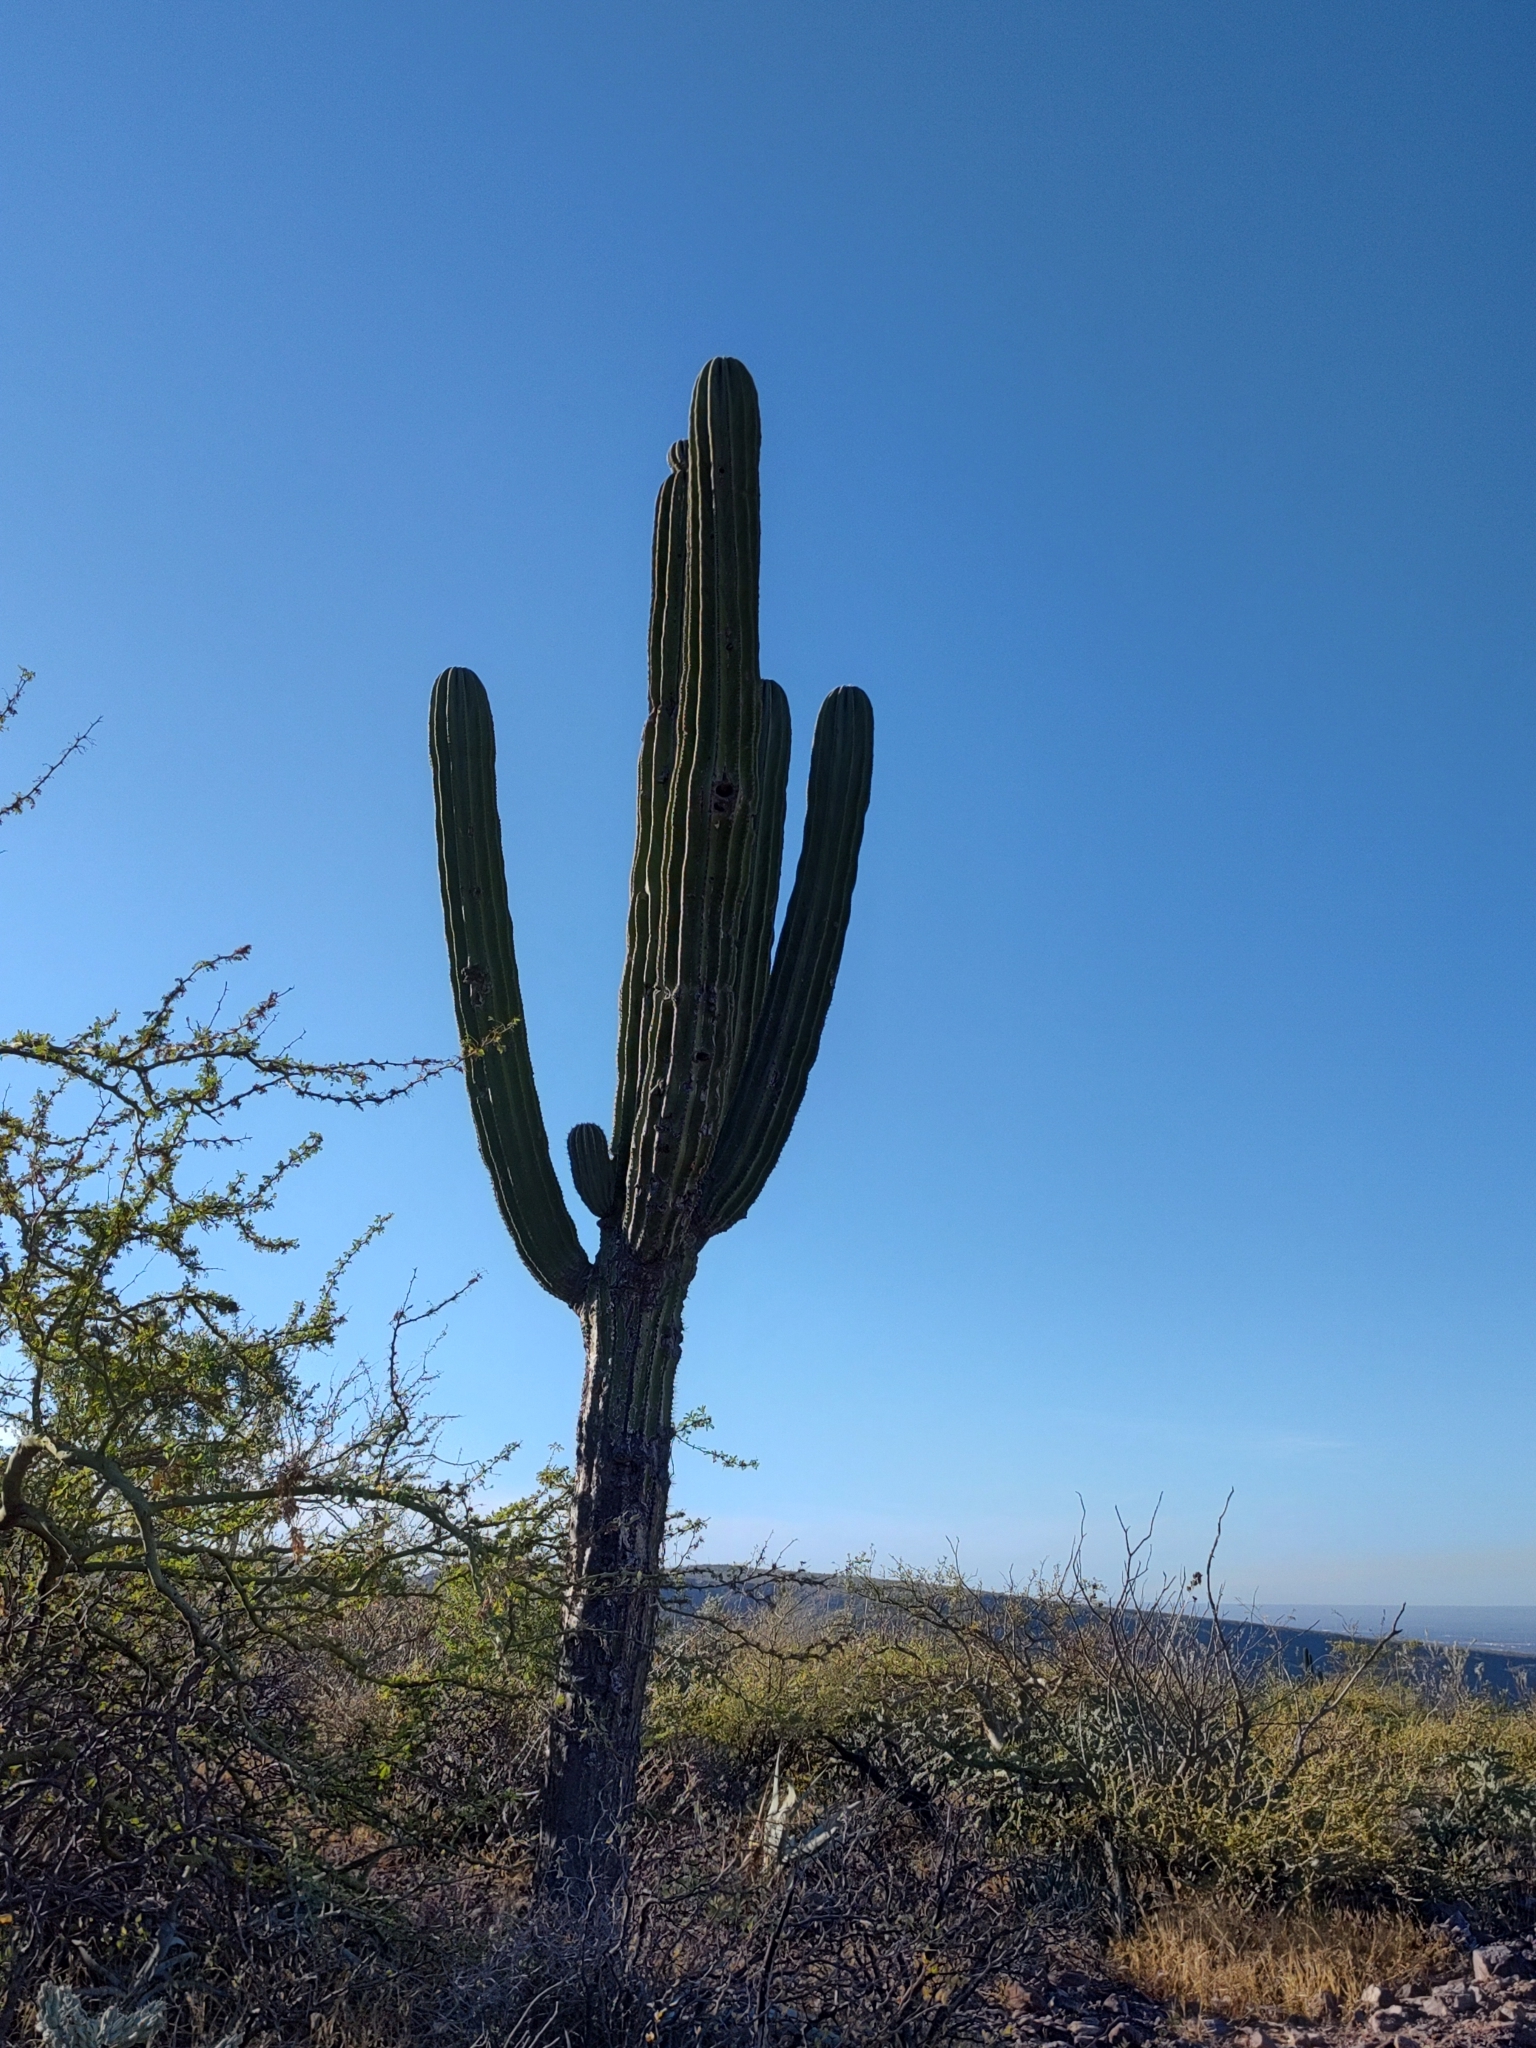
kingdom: Plantae
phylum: Tracheophyta
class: Magnoliopsida
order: Caryophyllales
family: Cactaceae
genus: Pachycereus
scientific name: Pachycereus pringlei
